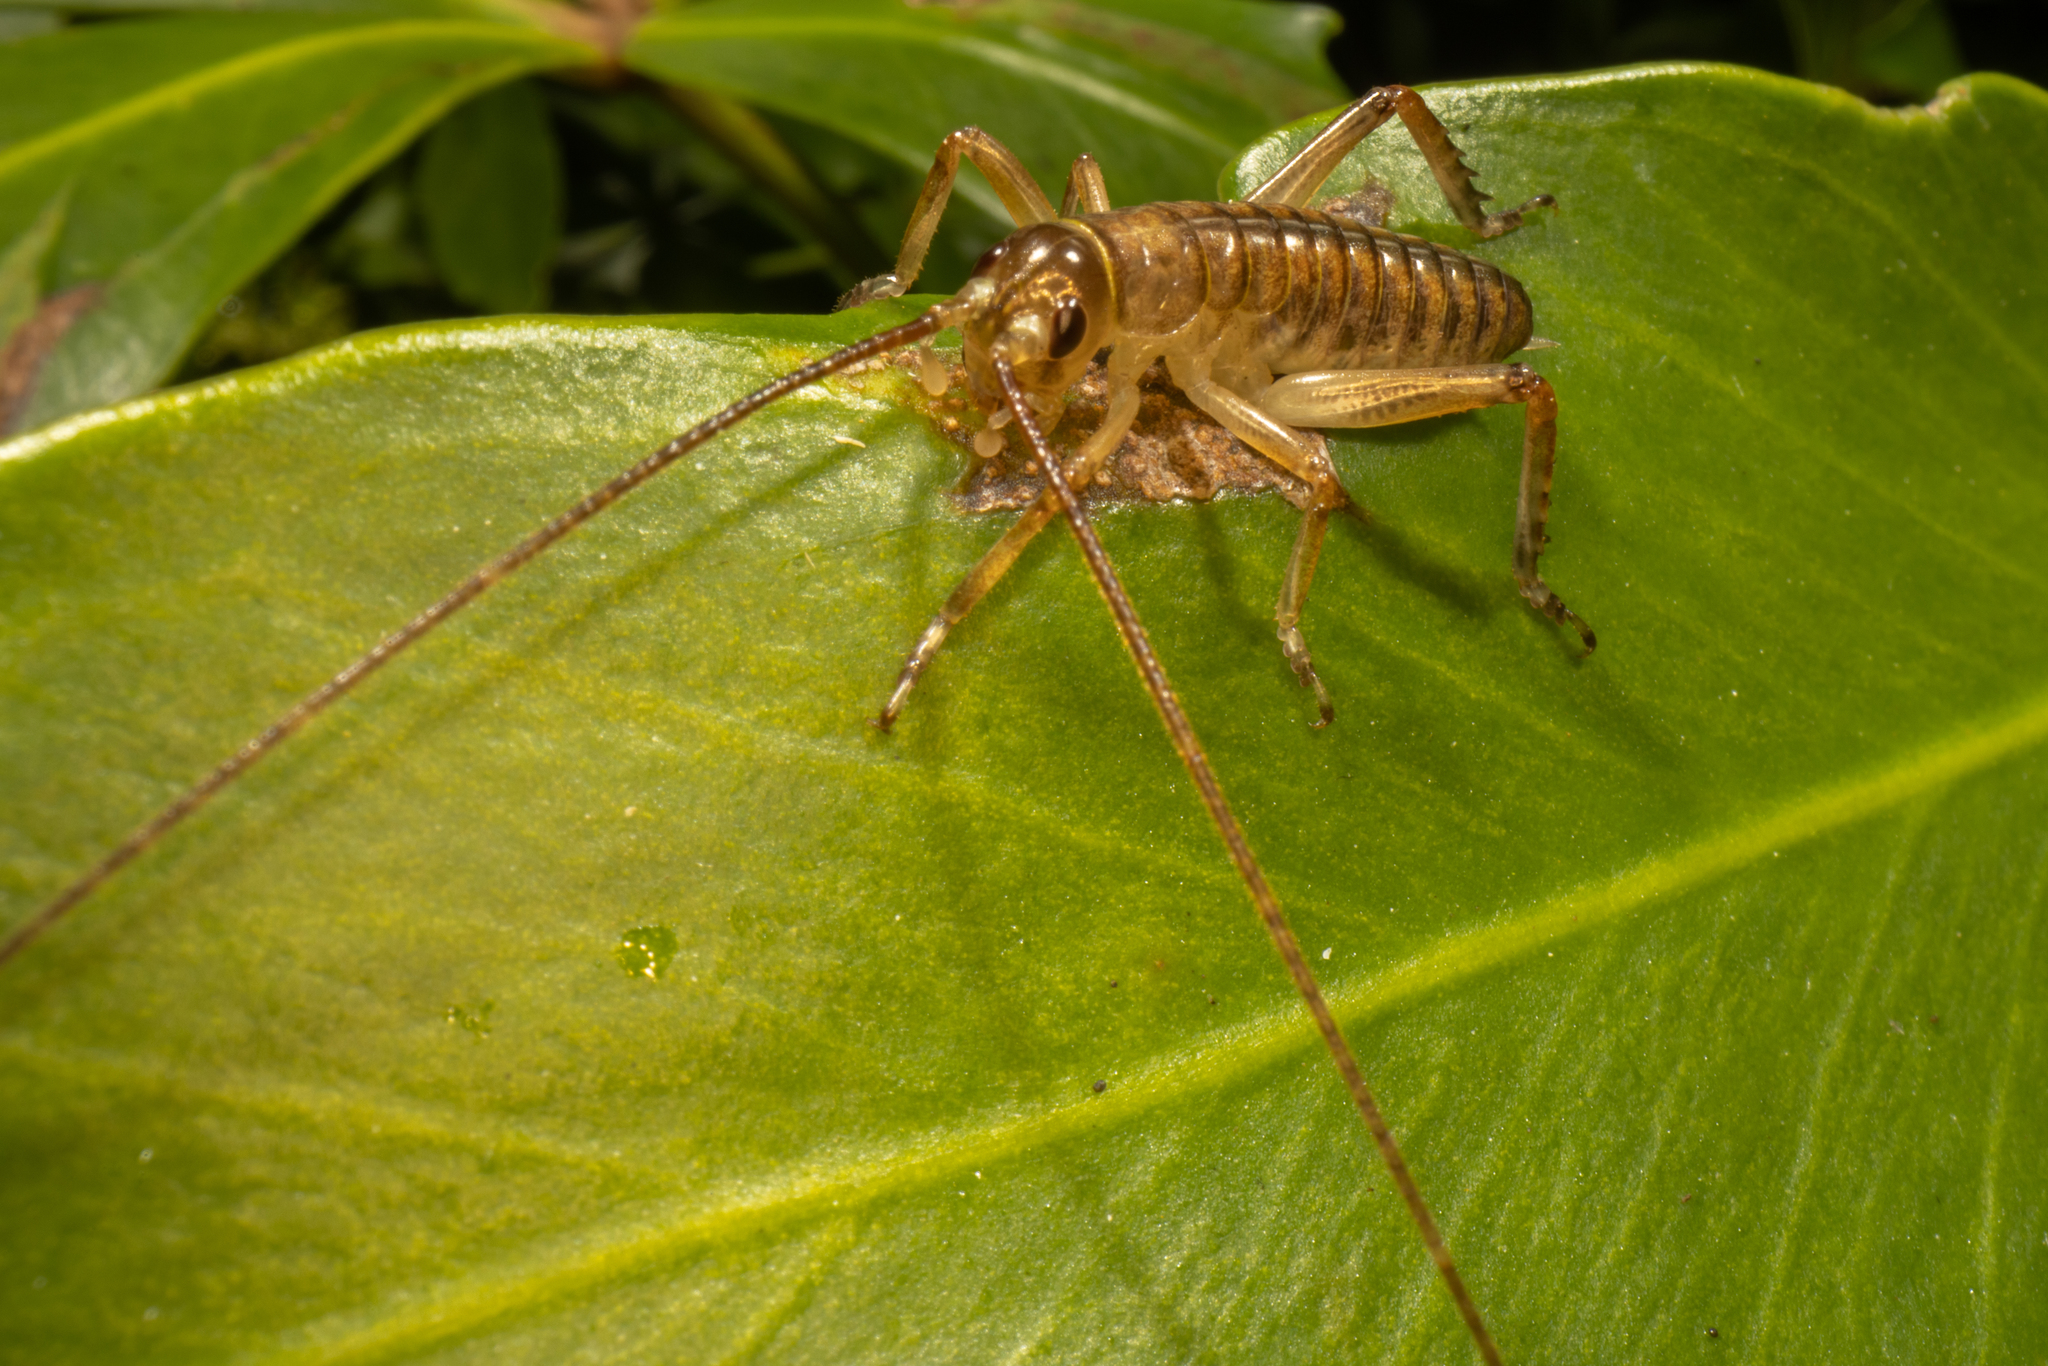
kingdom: Animalia
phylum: Arthropoda
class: Insecta
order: Orthoptera
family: Anostostomatidae
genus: Hemideina
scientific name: Hemideina thoracica
